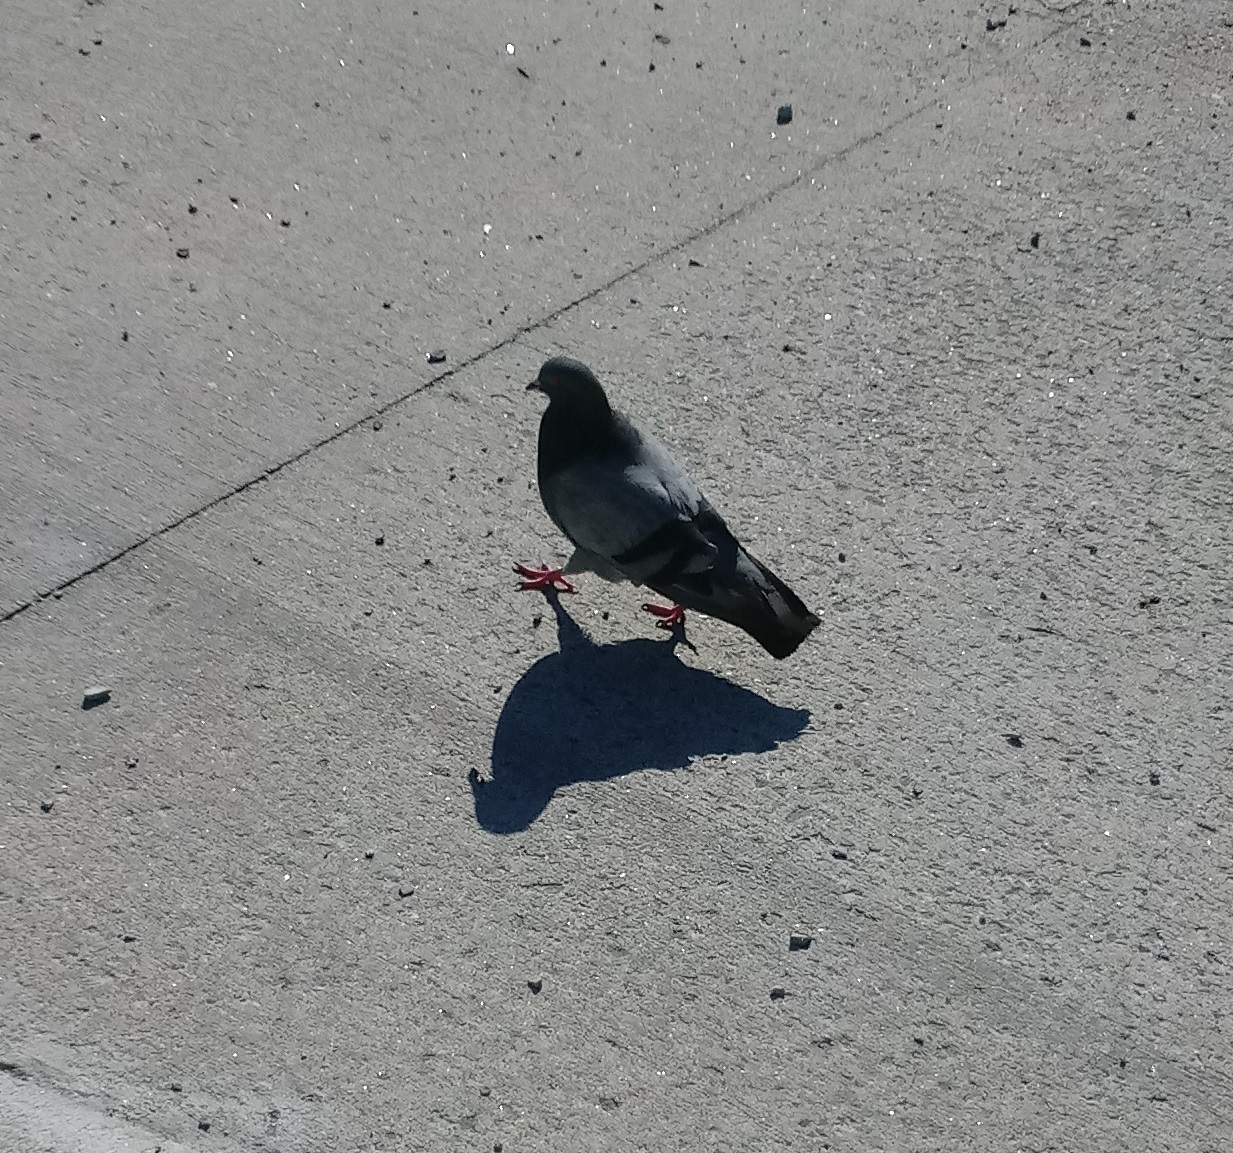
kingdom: Animalia
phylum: Chordata
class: Aves
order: Columbiformes
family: Columbidae
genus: Columba
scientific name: Columba livia
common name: Rock pigeon
